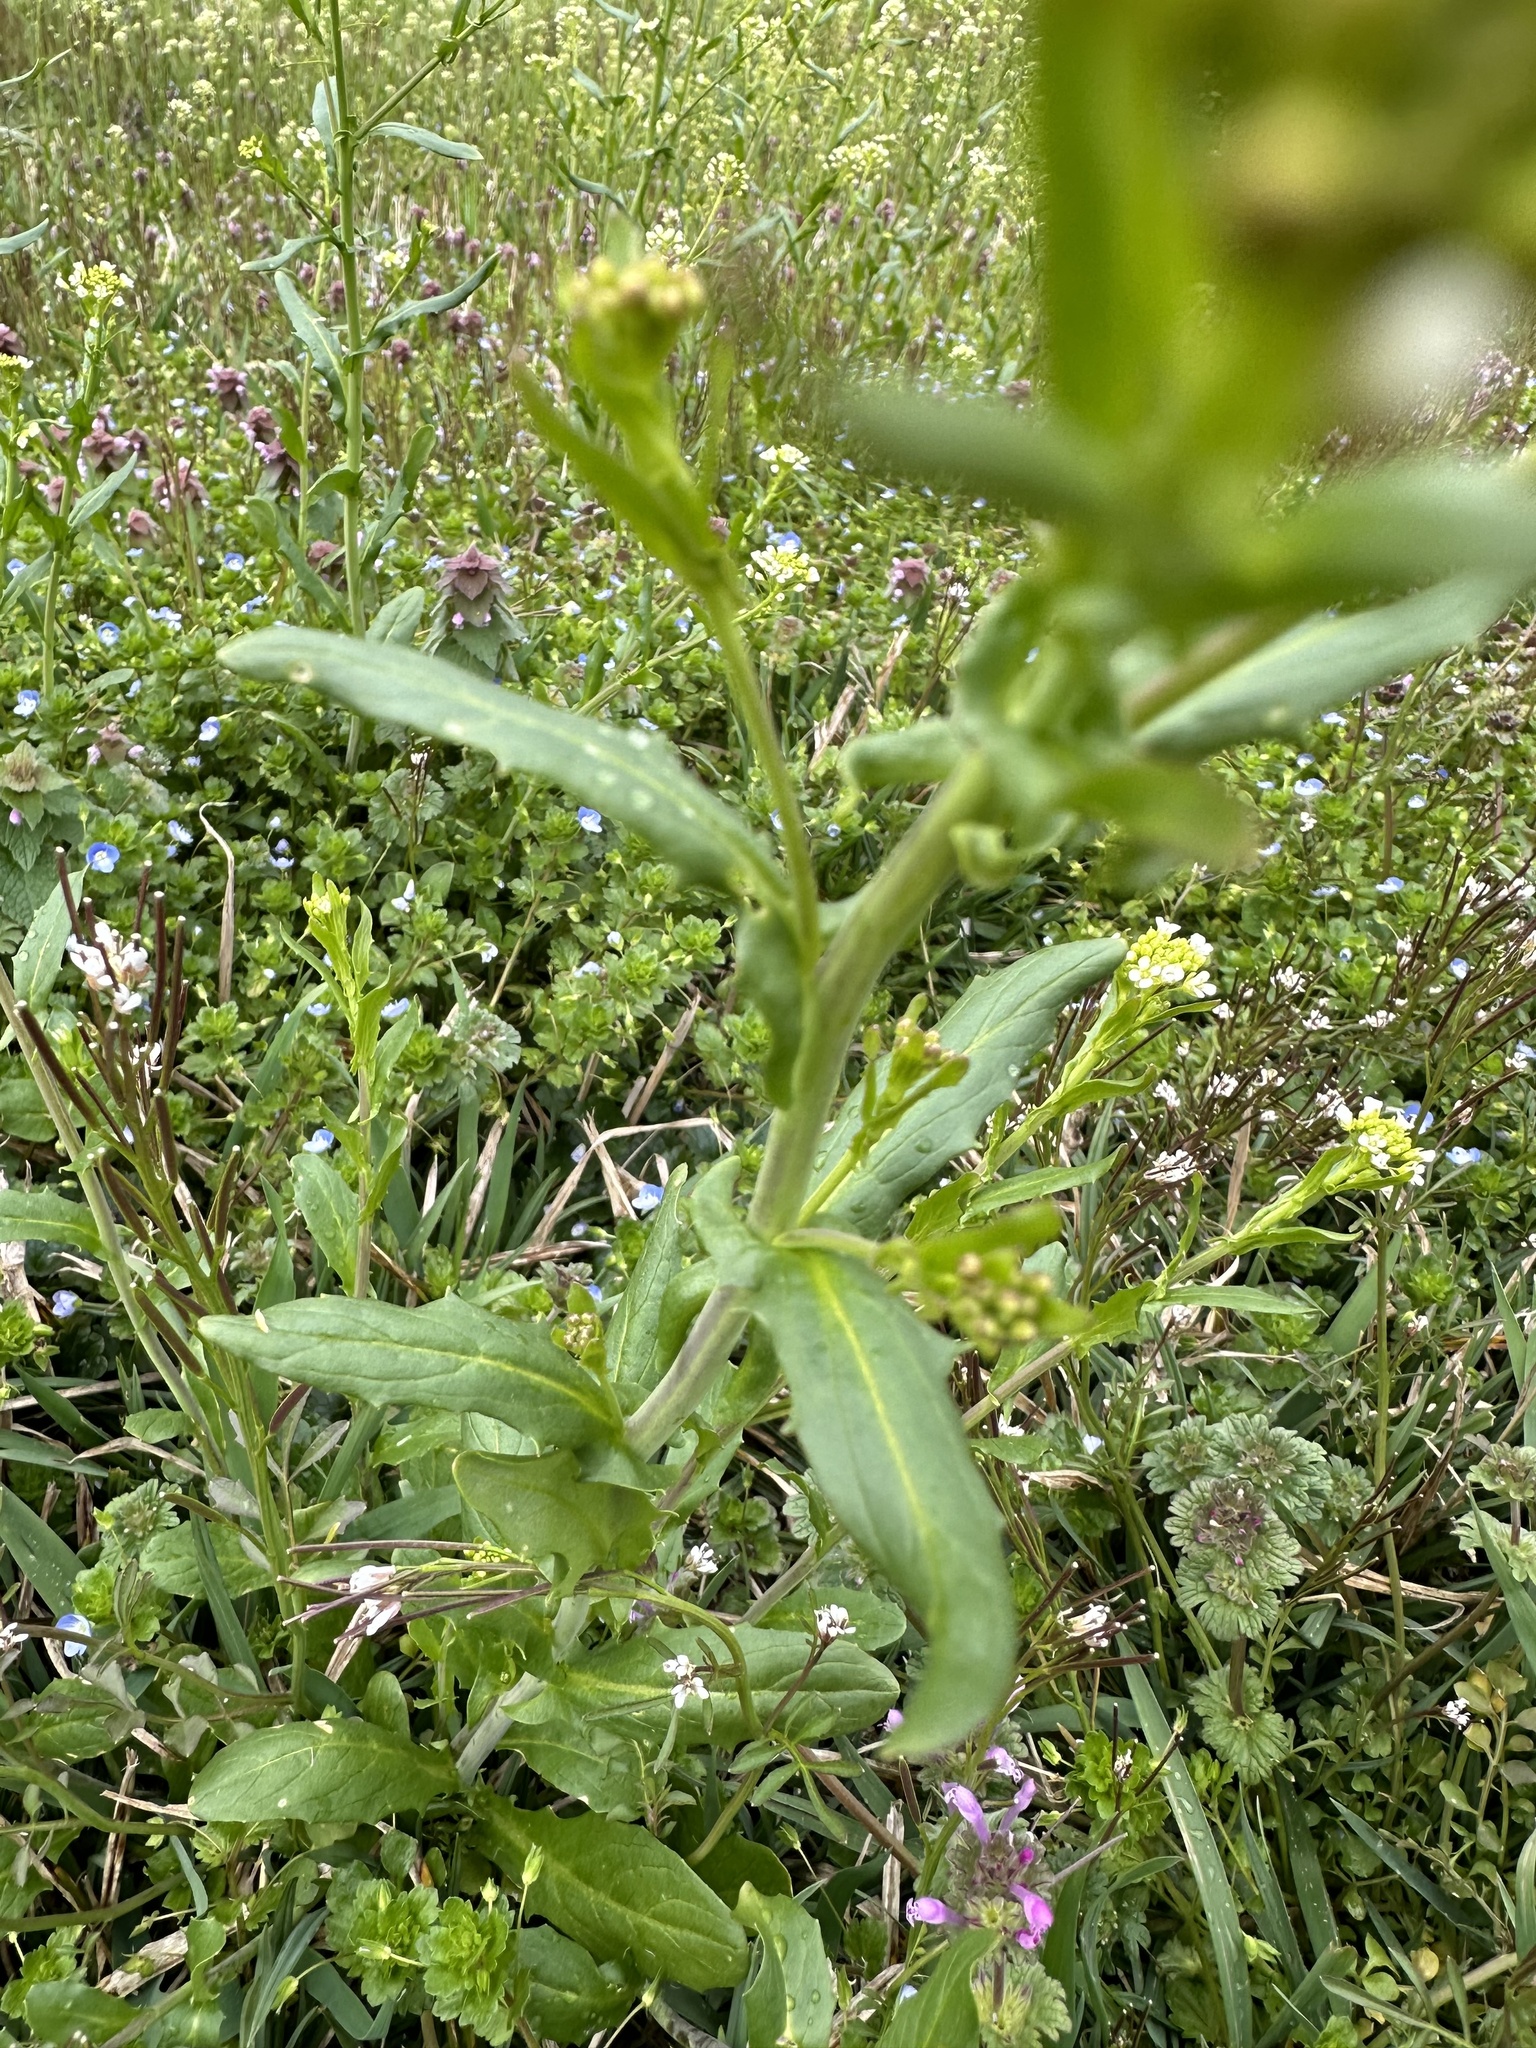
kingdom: Plantae
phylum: Tracheophyta
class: Magnoliopsida
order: Brassicales
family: Brassicaceae
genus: Mummenhoffia
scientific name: Mummenhoffia alliacea
